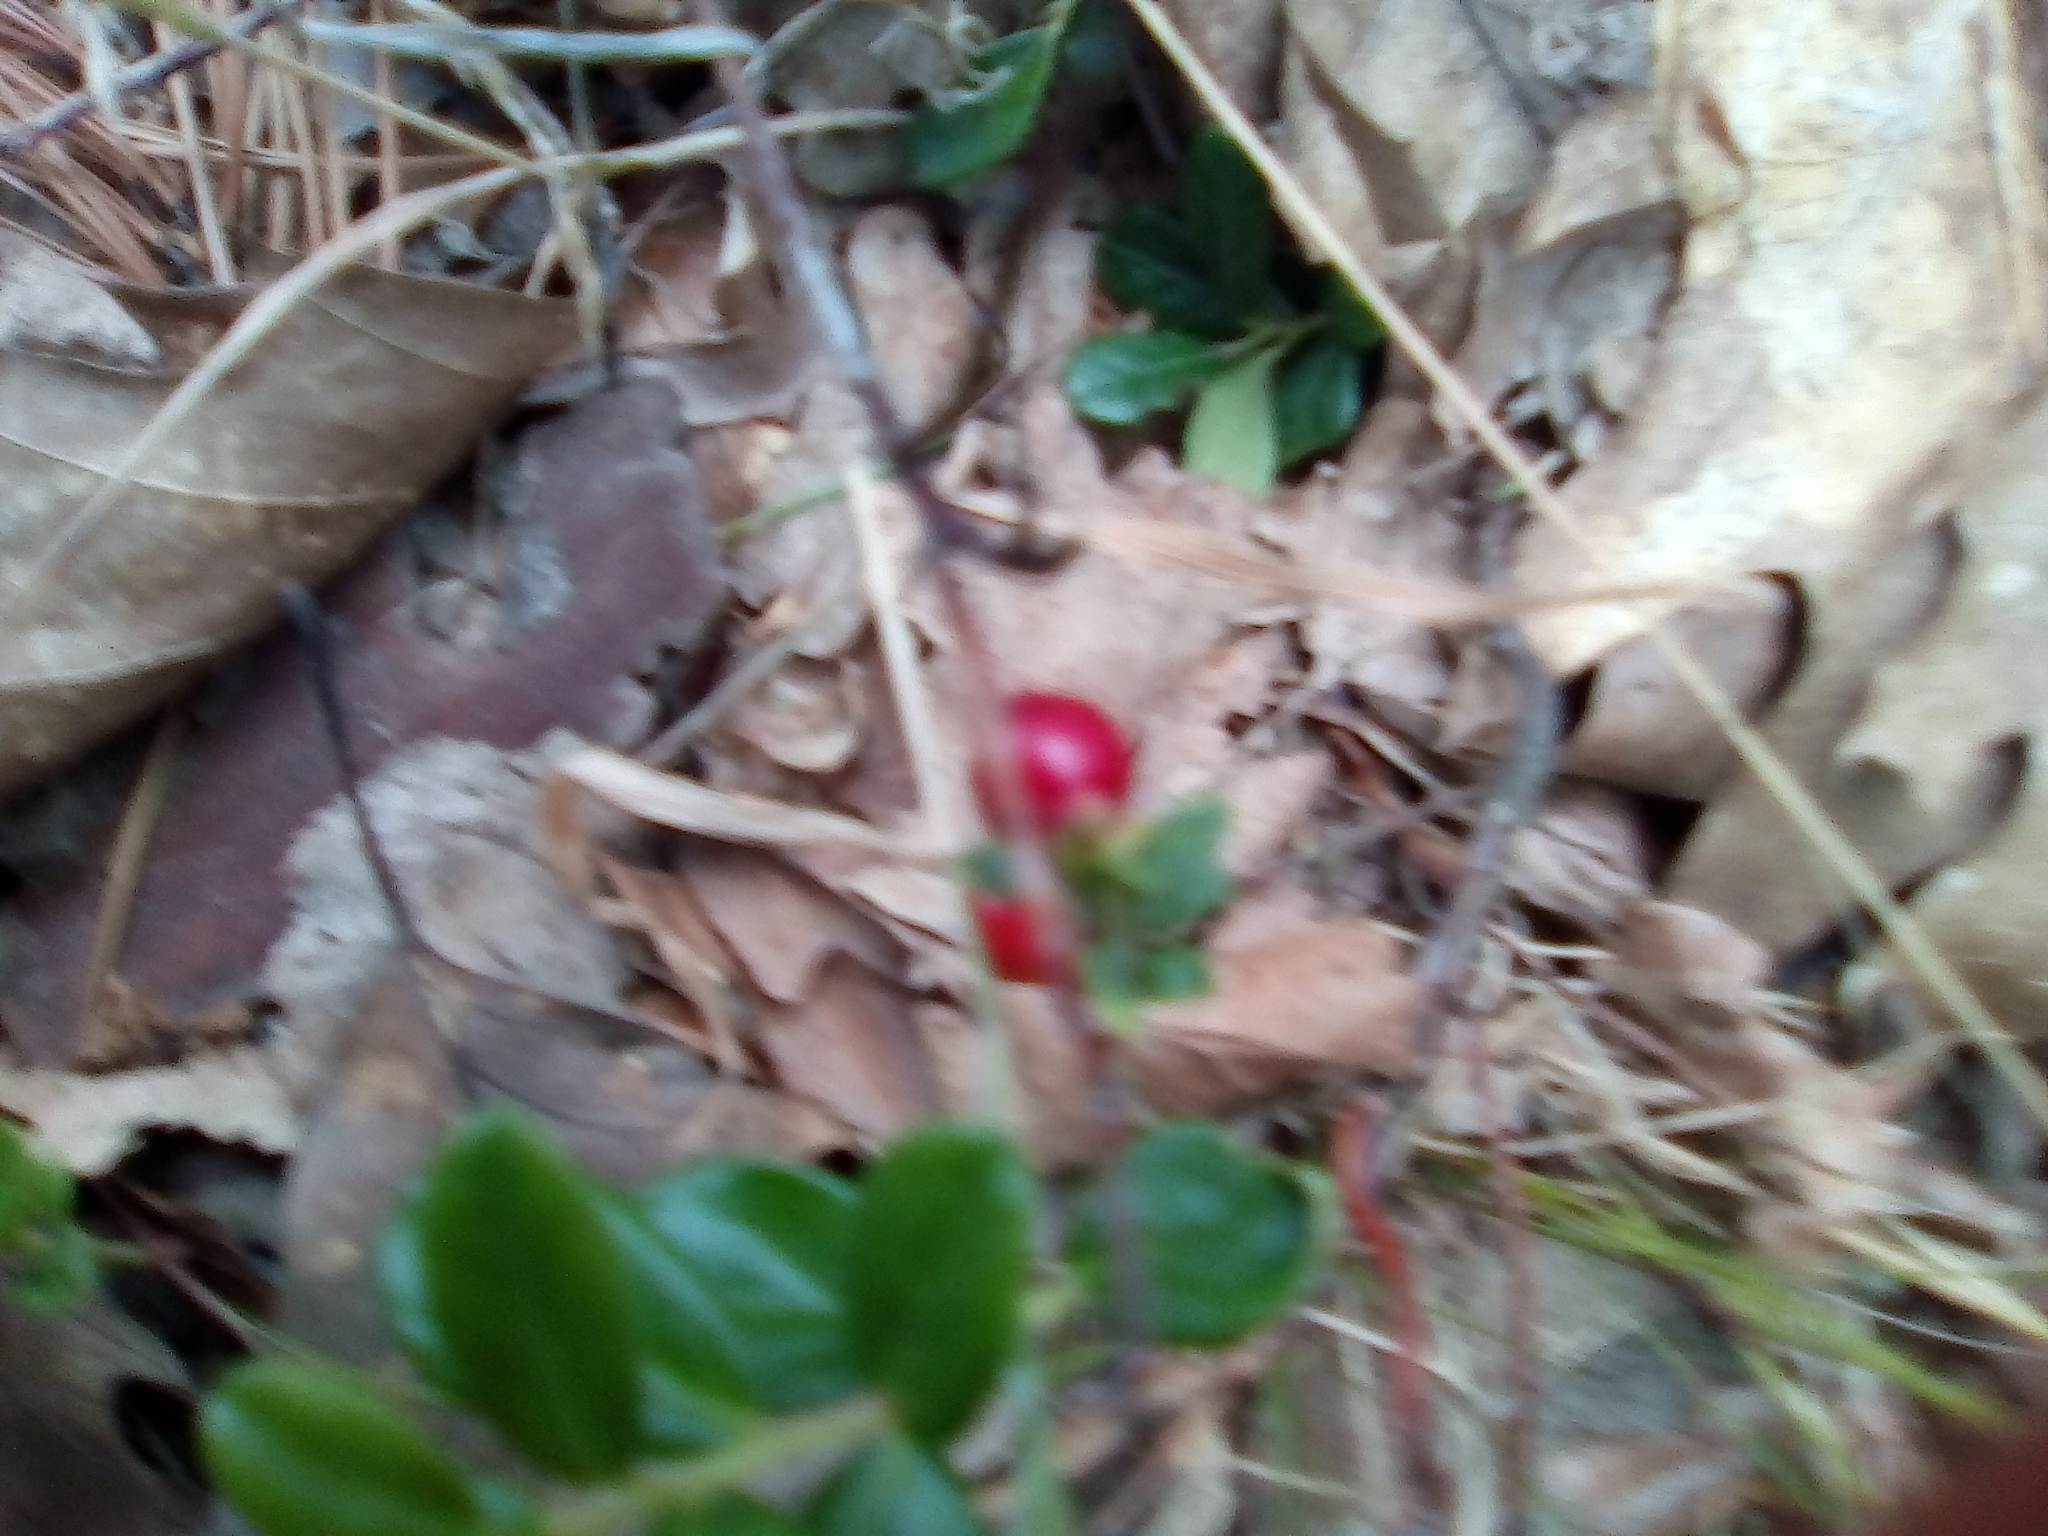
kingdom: Plantae
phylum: Tracheophyta
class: Magnoliopsida
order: Ericales
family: Ericaceae
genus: Vaccinium
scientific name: Vaccinium vitis-idaea
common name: Cowberry
